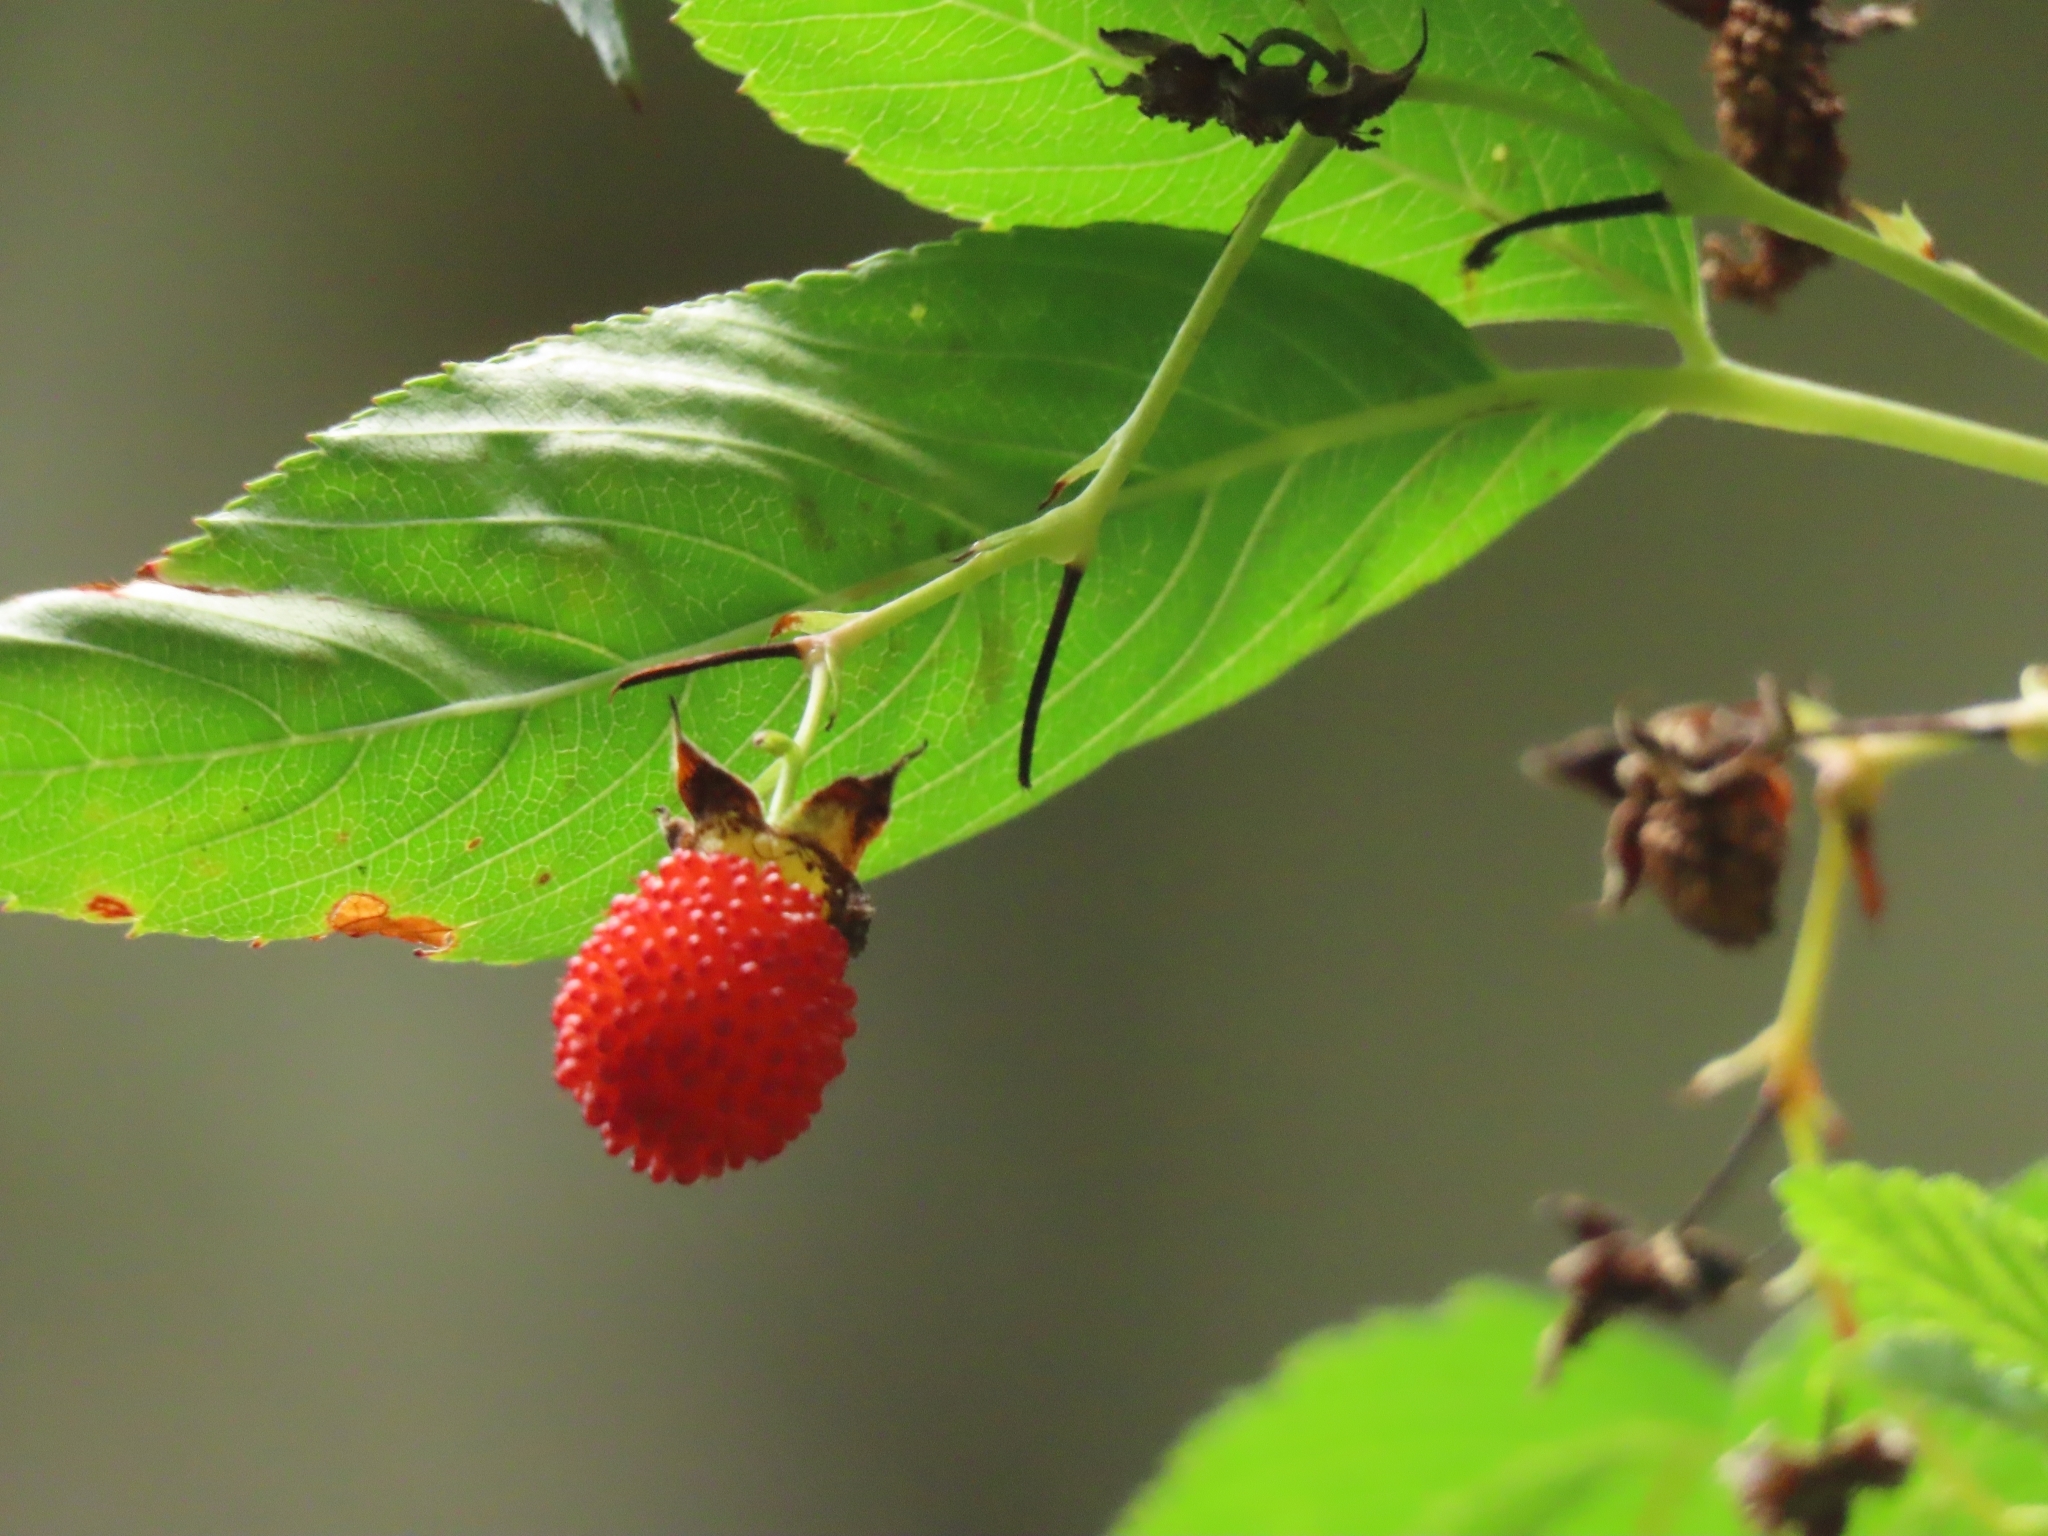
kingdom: Plantae
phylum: Tracheophyta
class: Magnoliopsida
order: Rosales
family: Rosaceae
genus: Rubus
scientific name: Rubus fraxinifolius
